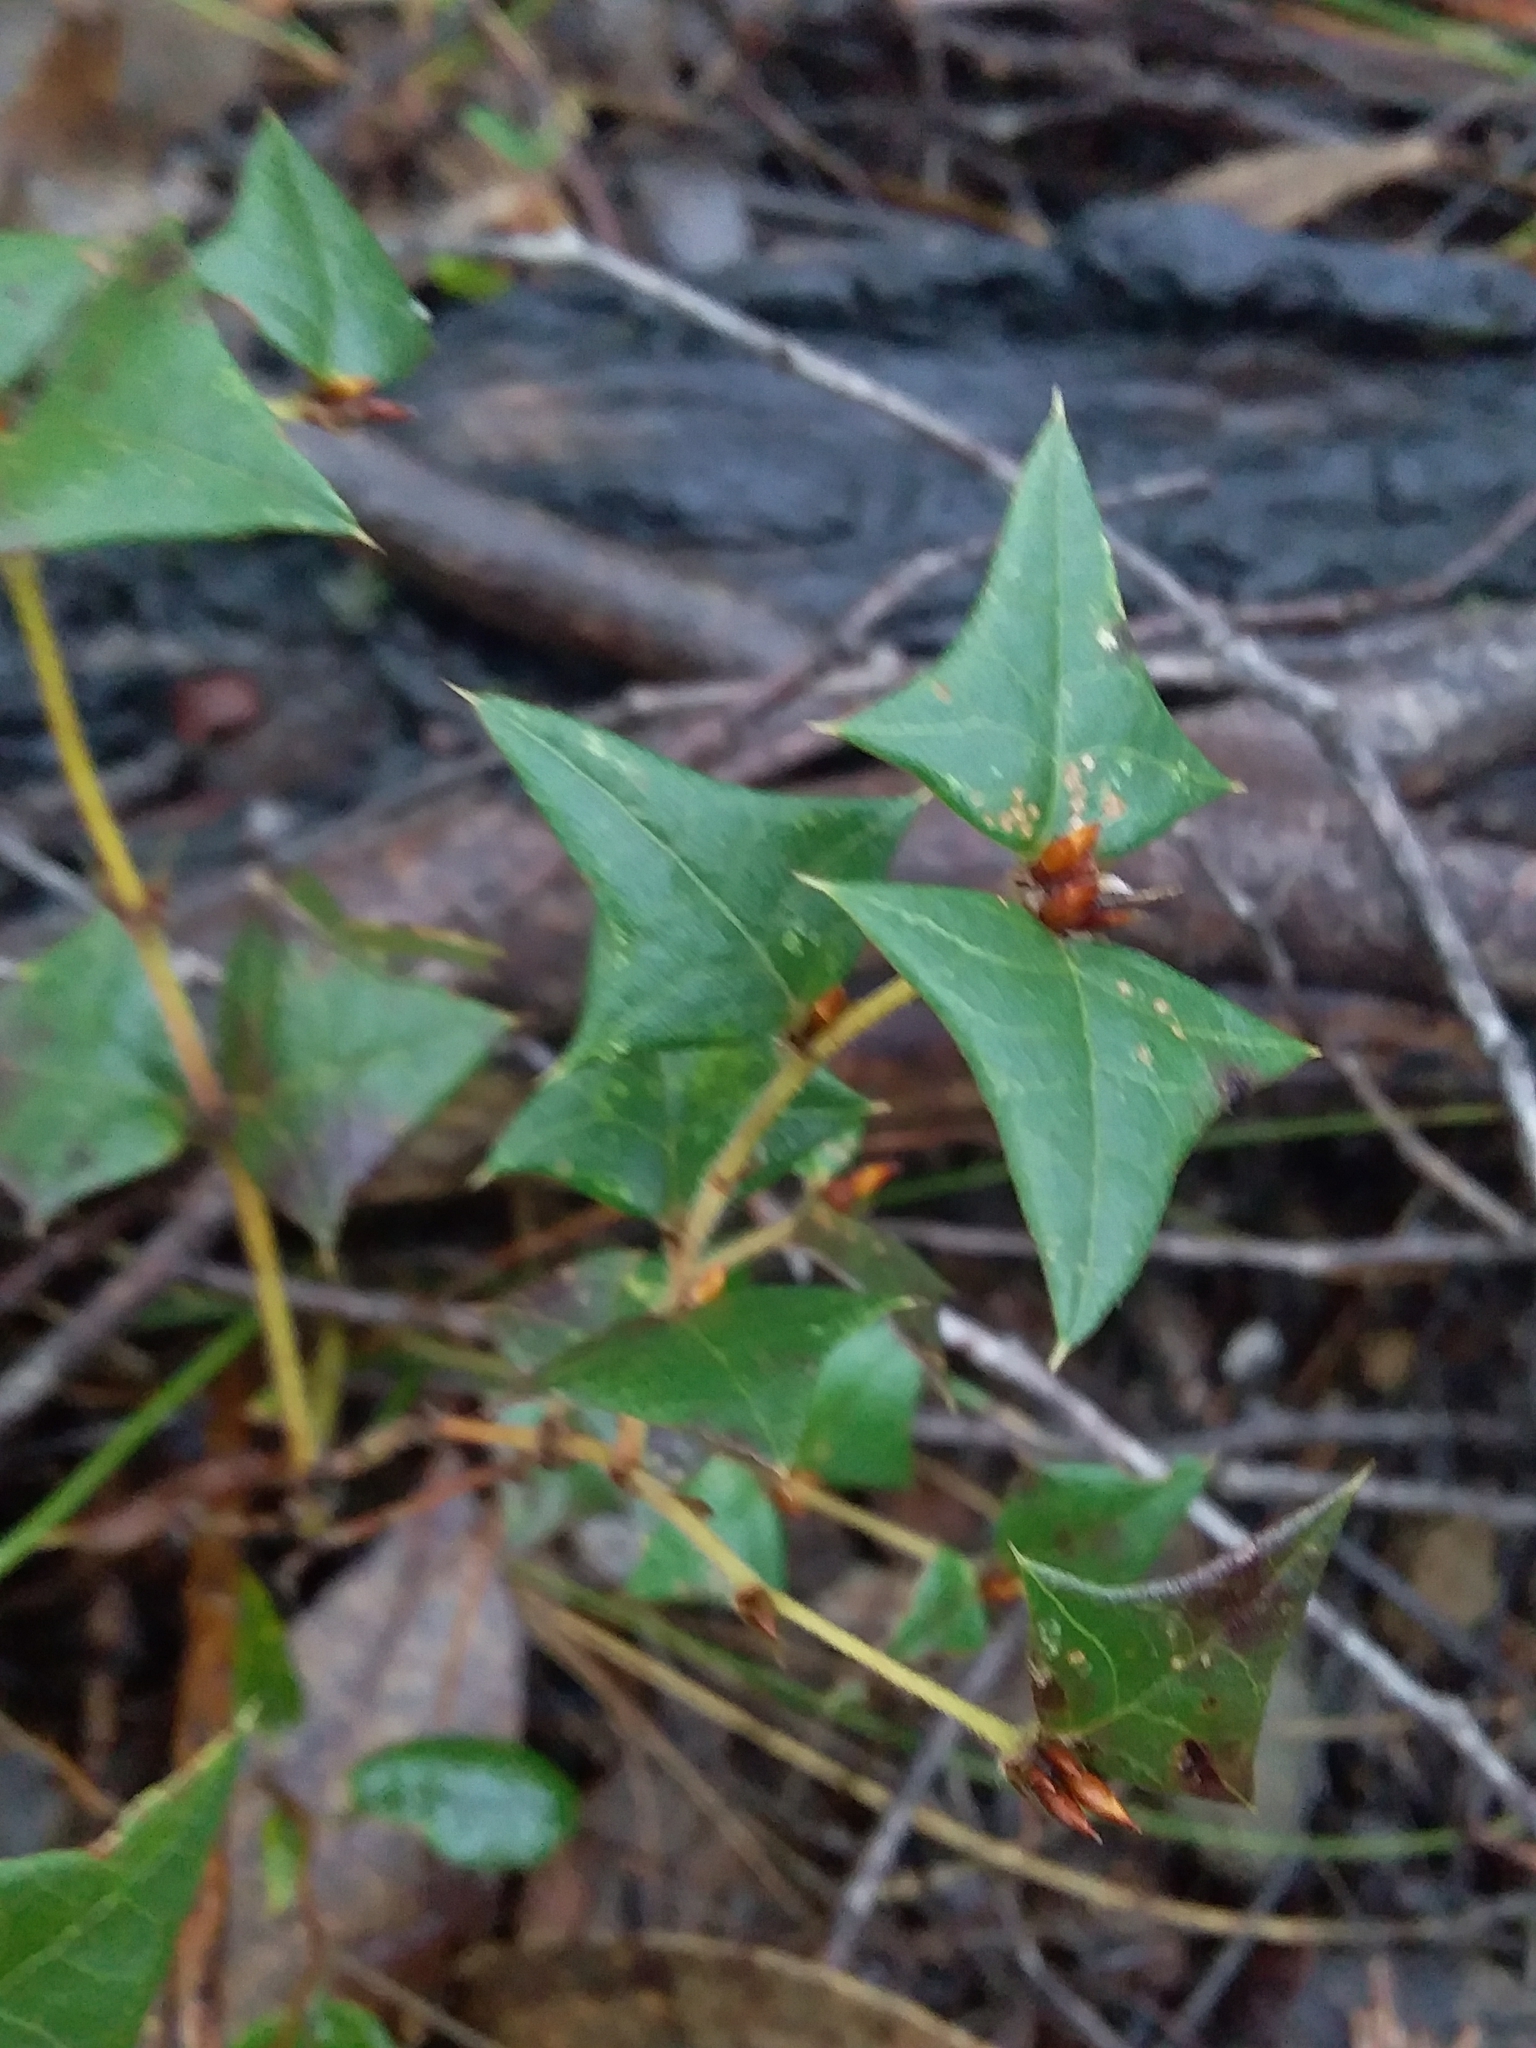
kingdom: Plantae
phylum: Tracheophyta
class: Magnoliopsida
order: Fabales
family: Fabaceae
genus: Platylobium
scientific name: Platylobium obtusangulum
